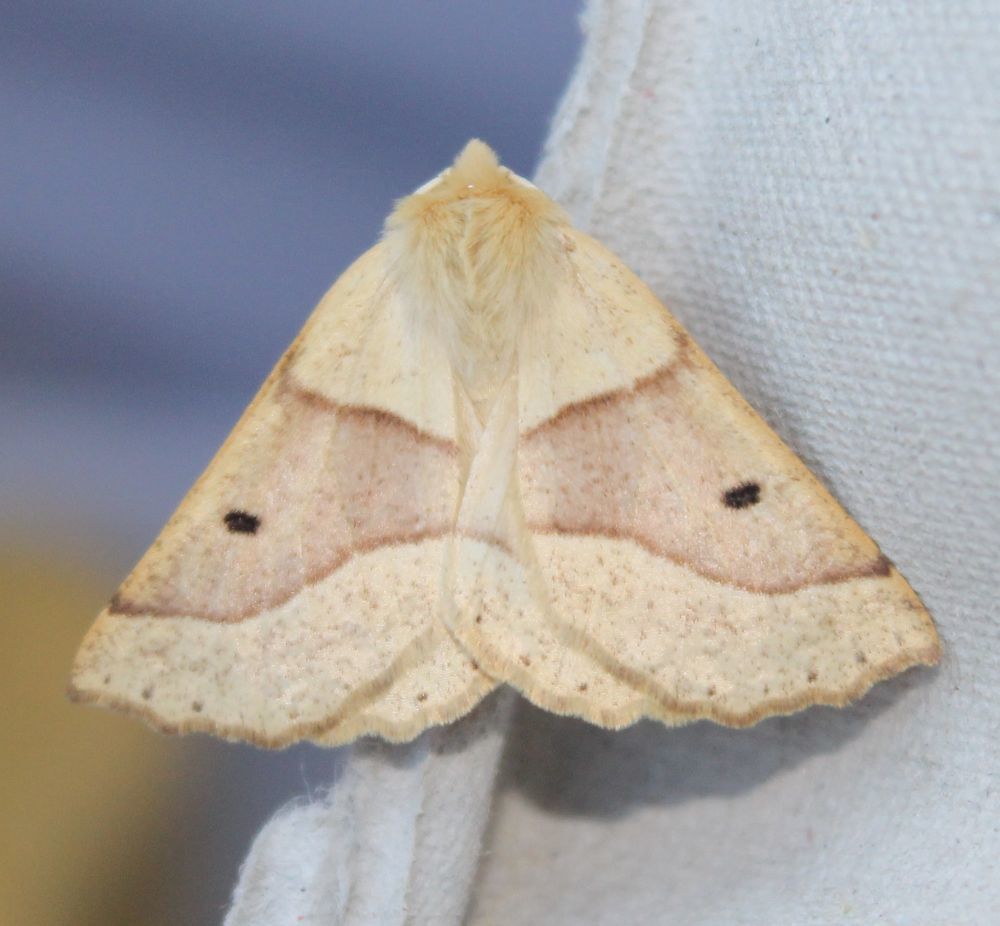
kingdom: Animalia
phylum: Arthropoda
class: Insecta
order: Lepidoptera
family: Geometridae
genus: Crocallis
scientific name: Crocallis elinguaria
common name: Scalloped oak
